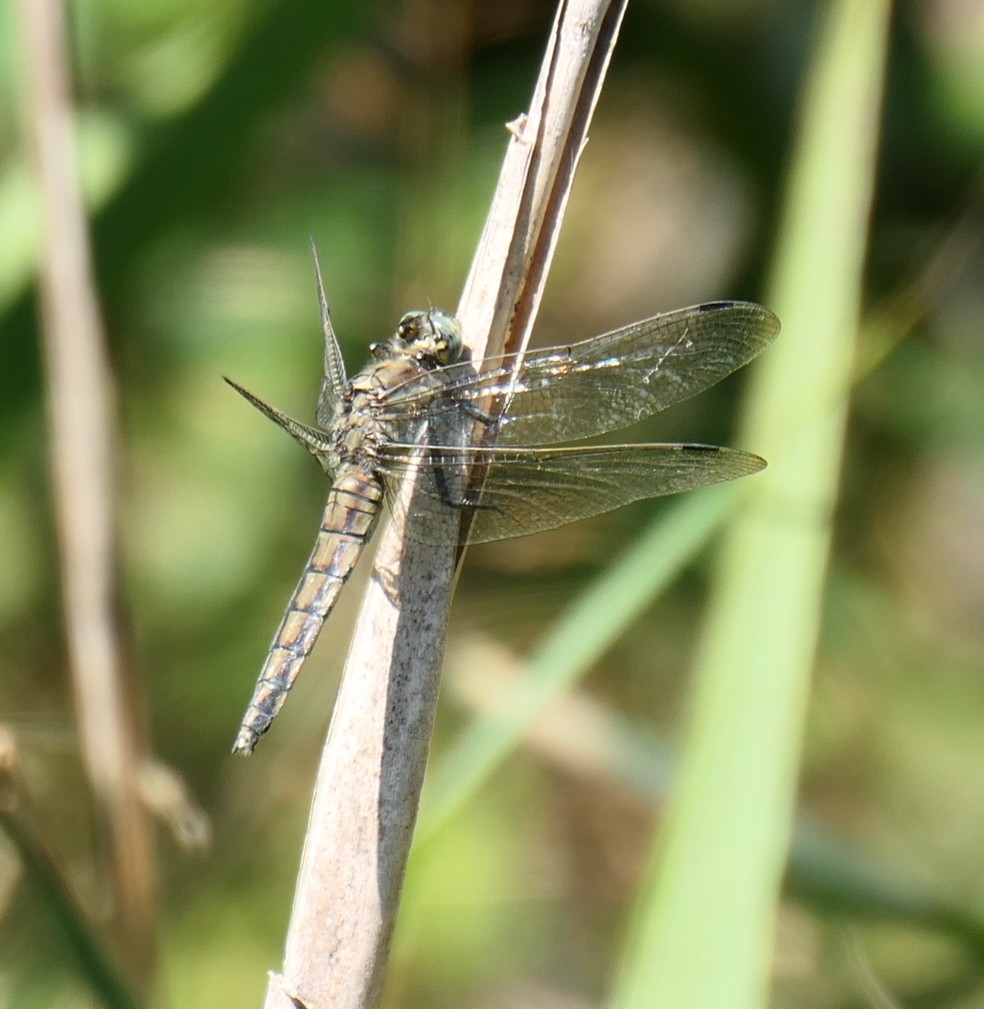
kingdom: Animalia
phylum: Arthropoda
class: Insecta
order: Odonata
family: Libellulidae
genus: Orthetrum
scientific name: Orthetrum cancellatum
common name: Black-tailed skimmer
